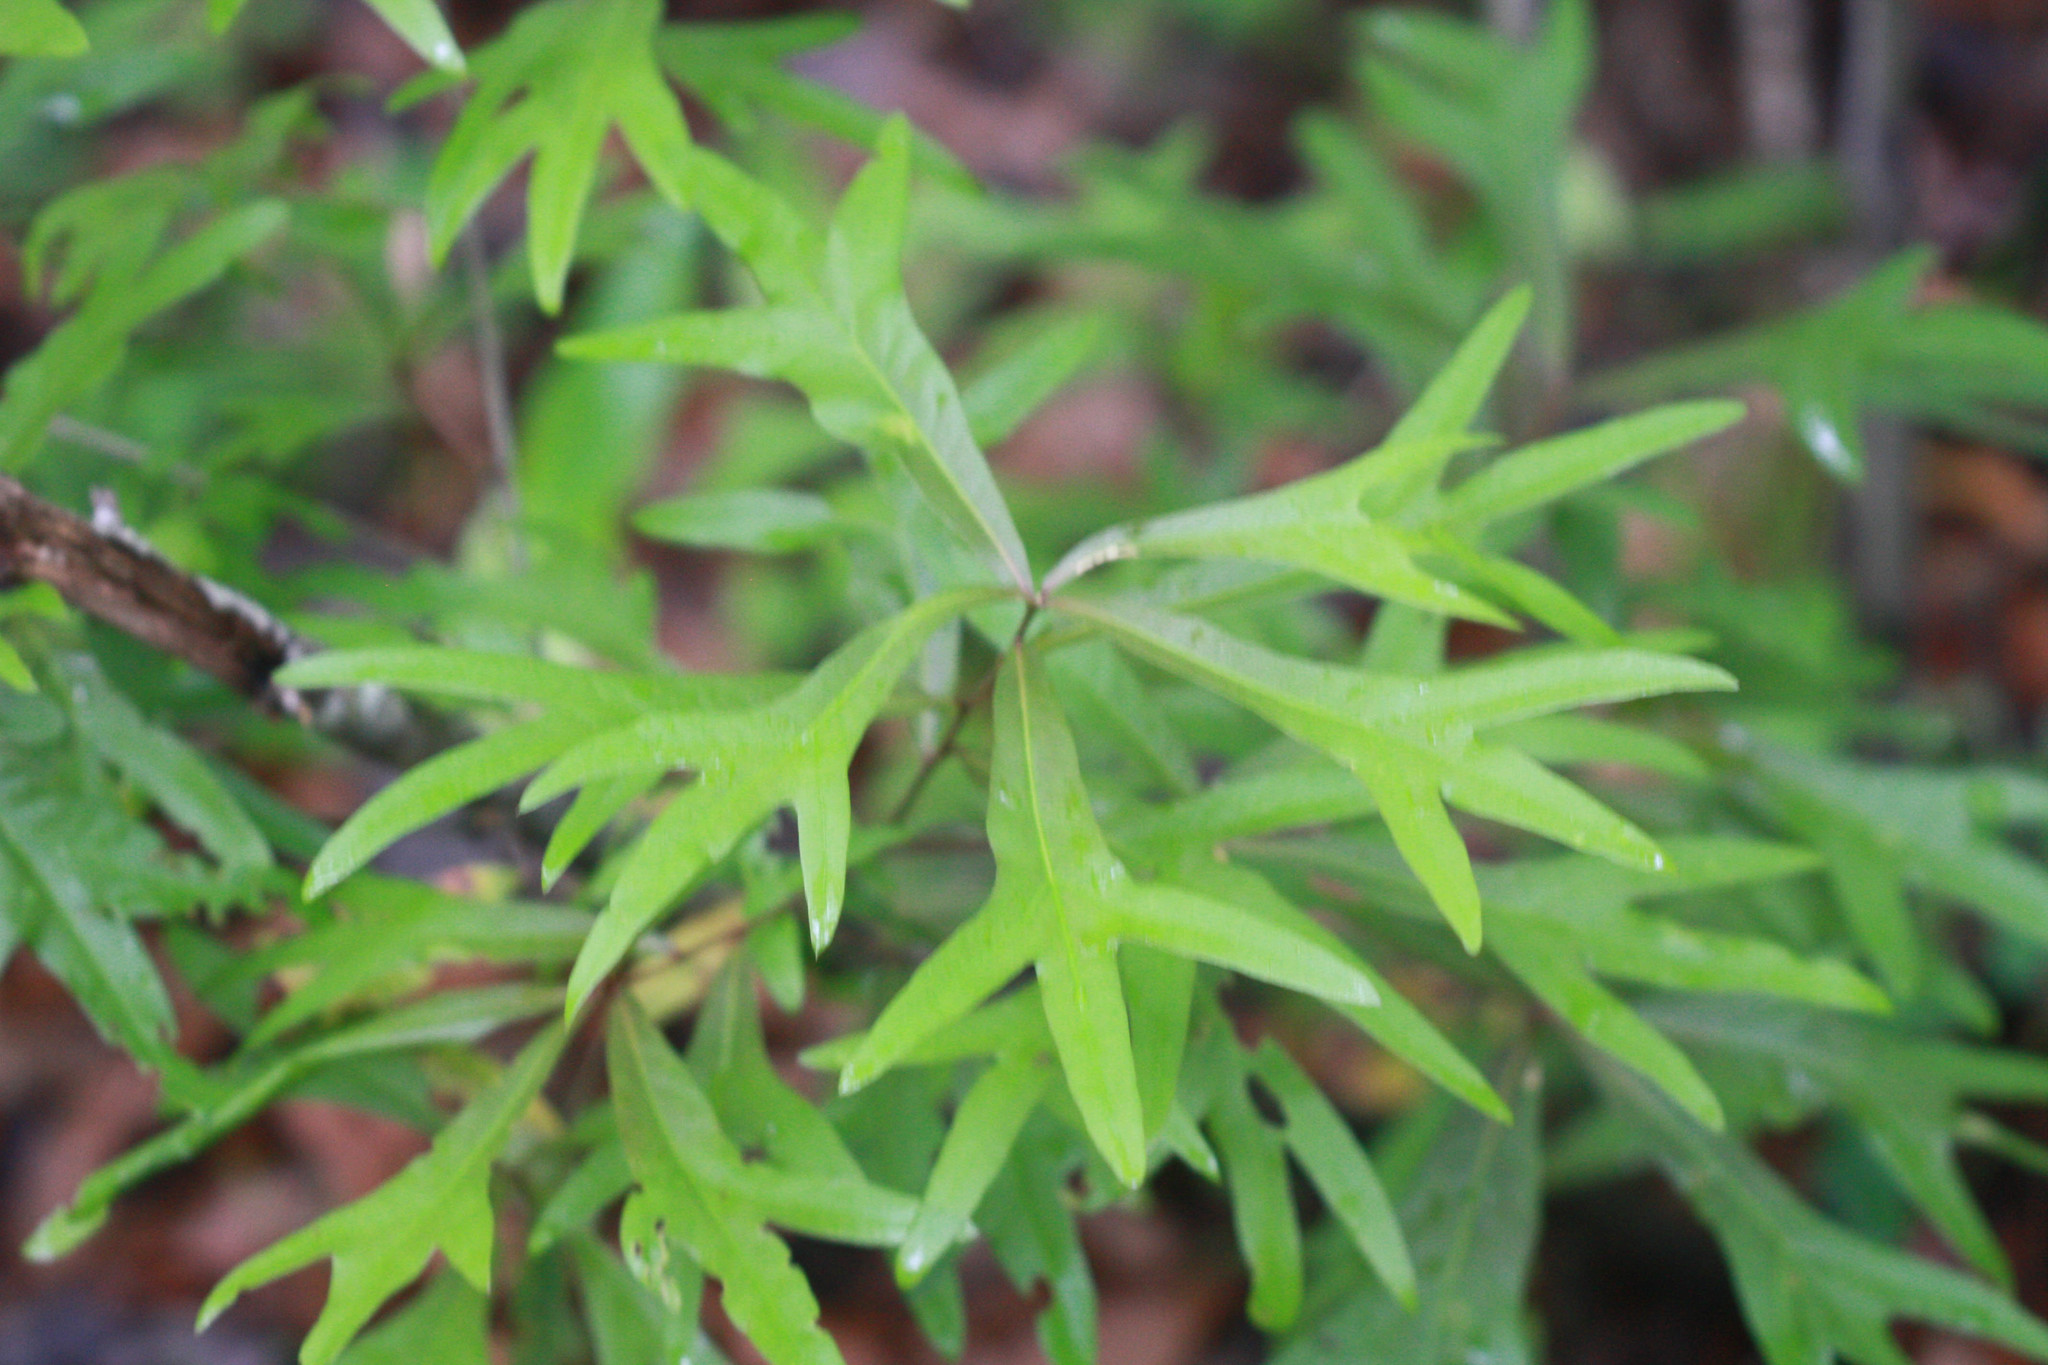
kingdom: Plantae
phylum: Tracheophyta
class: Magnoliopsida
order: Fagales
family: Fagaceae
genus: Quercus
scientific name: Quercus nigra
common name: Water oak
